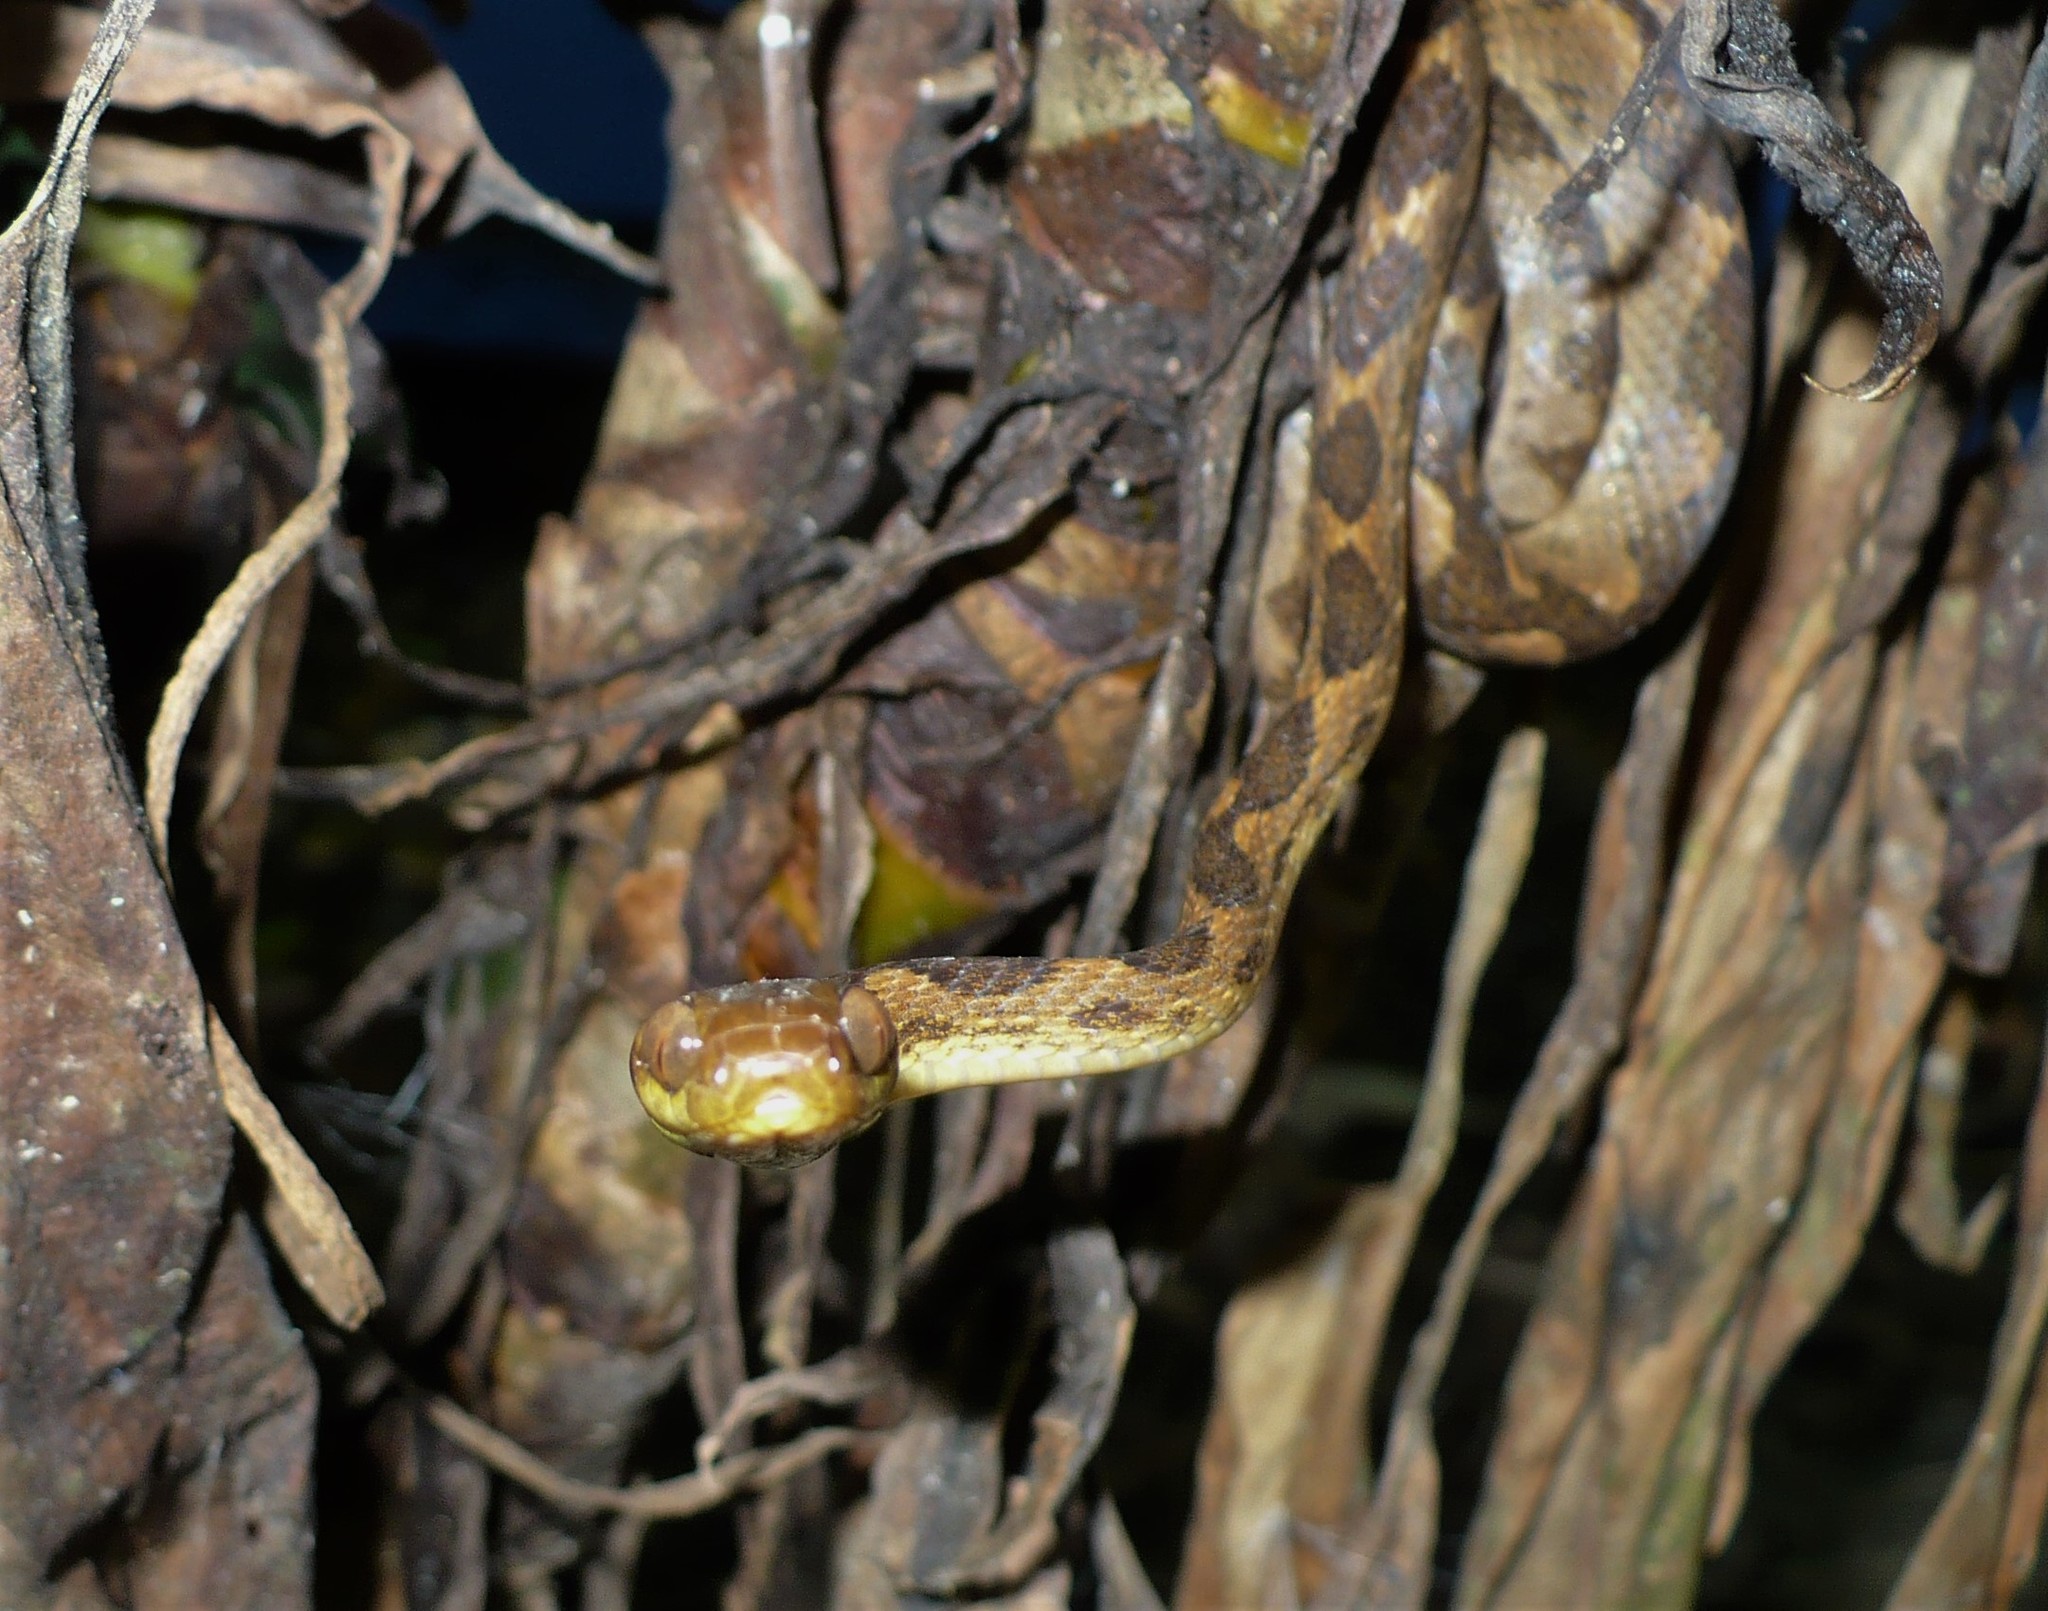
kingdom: Animalia
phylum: Chordata
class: Squamata
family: Colubridae
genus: Leptodeira
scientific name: Leptodeira ornata
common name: Northern cat-eyed snake
